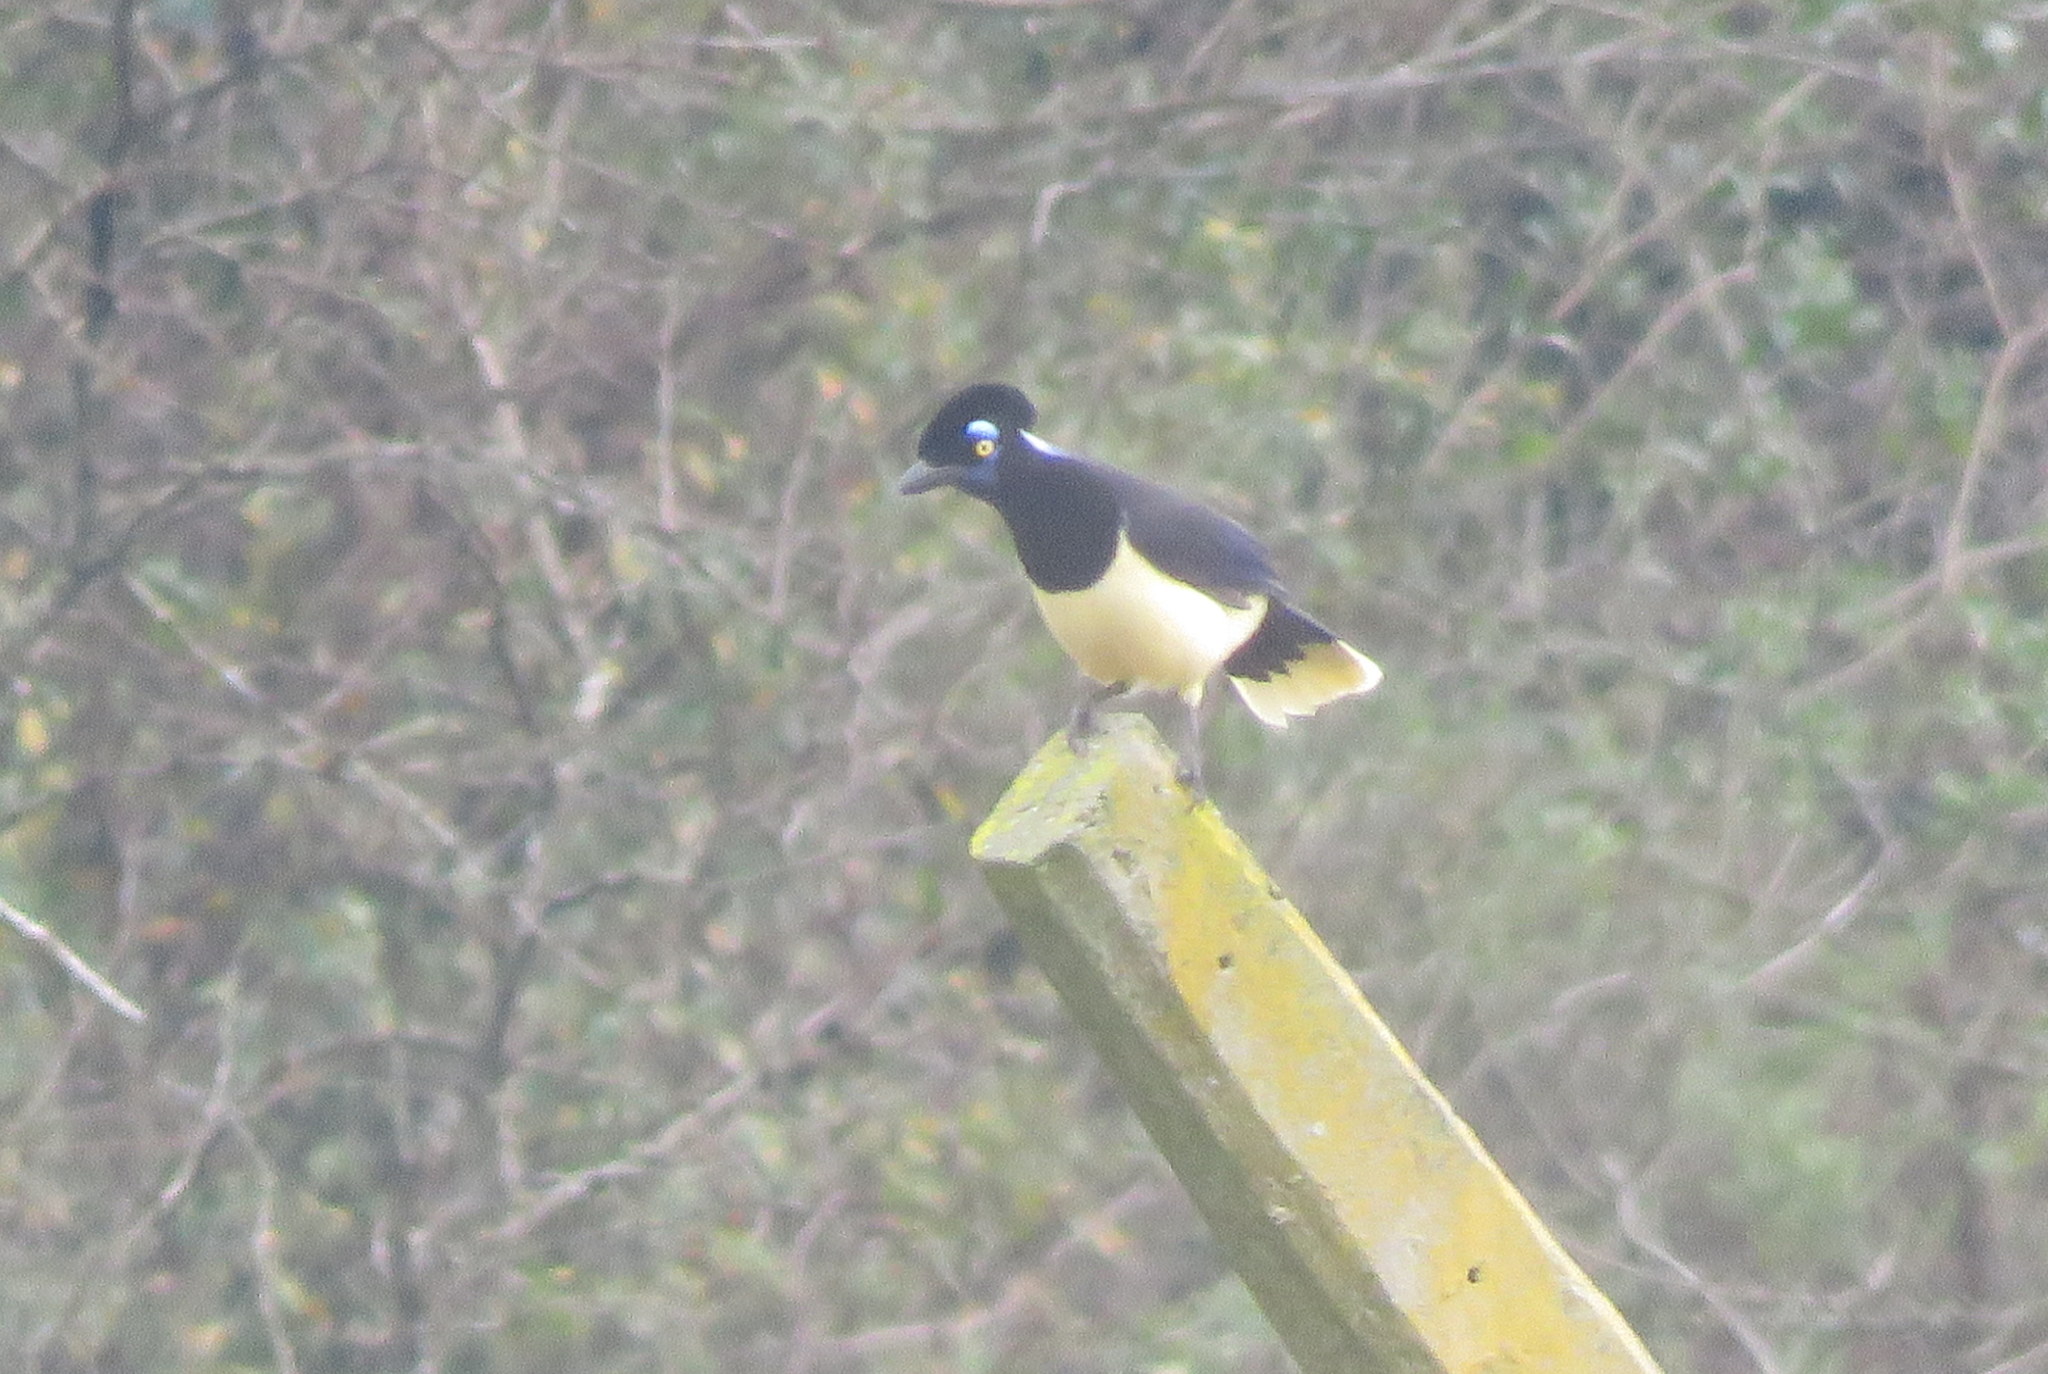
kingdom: Animalia
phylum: Chordata
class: Aves
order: Passeriformes
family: Corvidae
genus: Cyanocorax
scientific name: Cyanocorax chrysops
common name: Plush-crested jay
